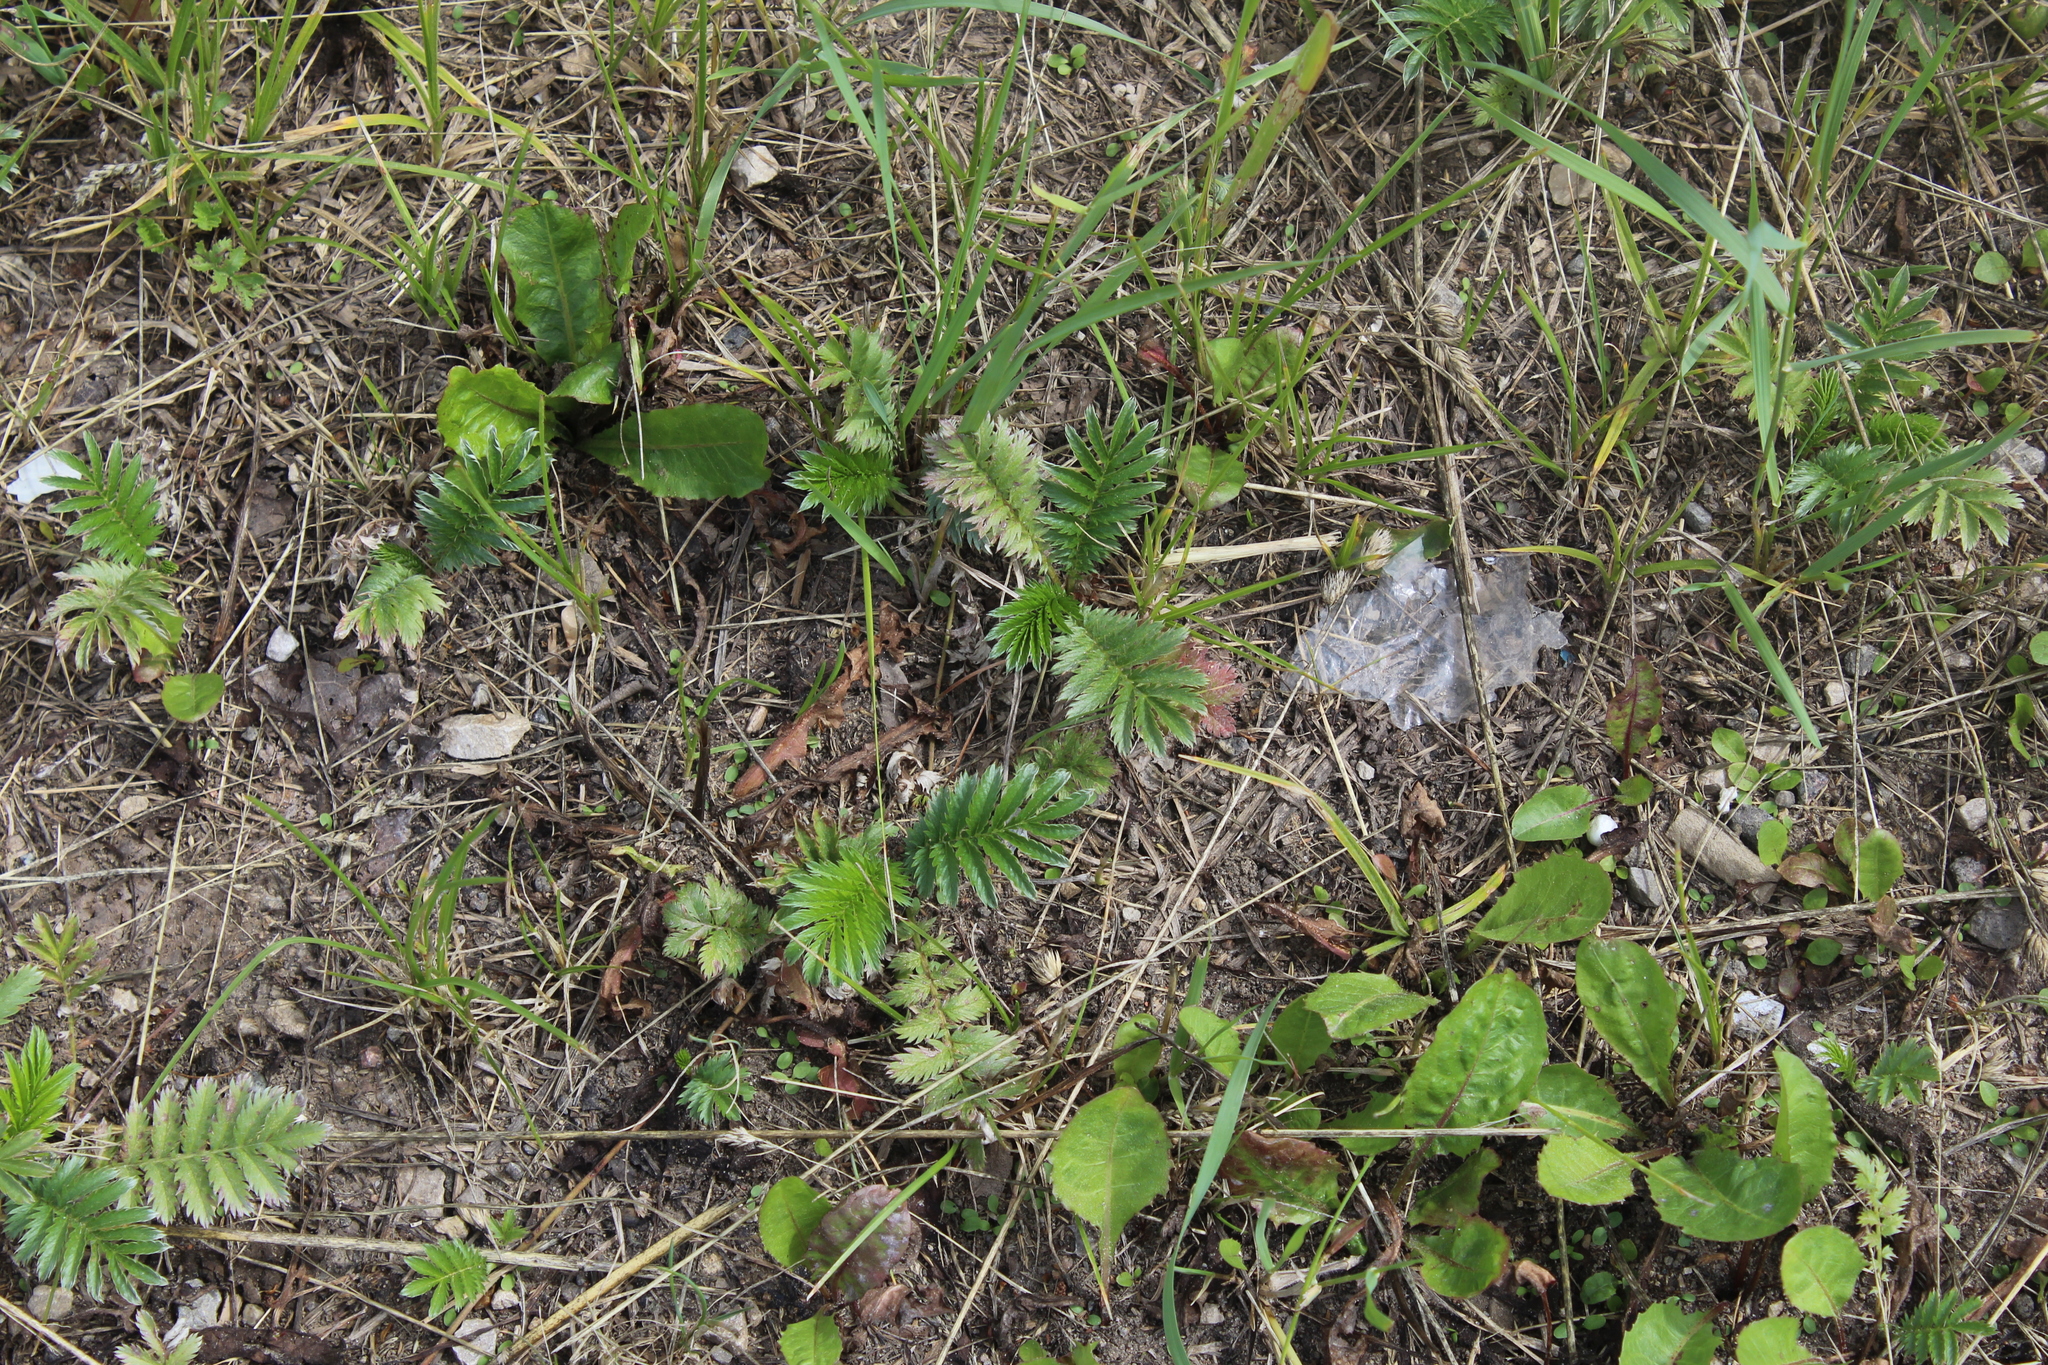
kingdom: Plantae
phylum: Tracheophyta
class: Magnoliopsida
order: Rosales
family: Rosaceae
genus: Argentina
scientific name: Argentina anserina
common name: Common silverweed
